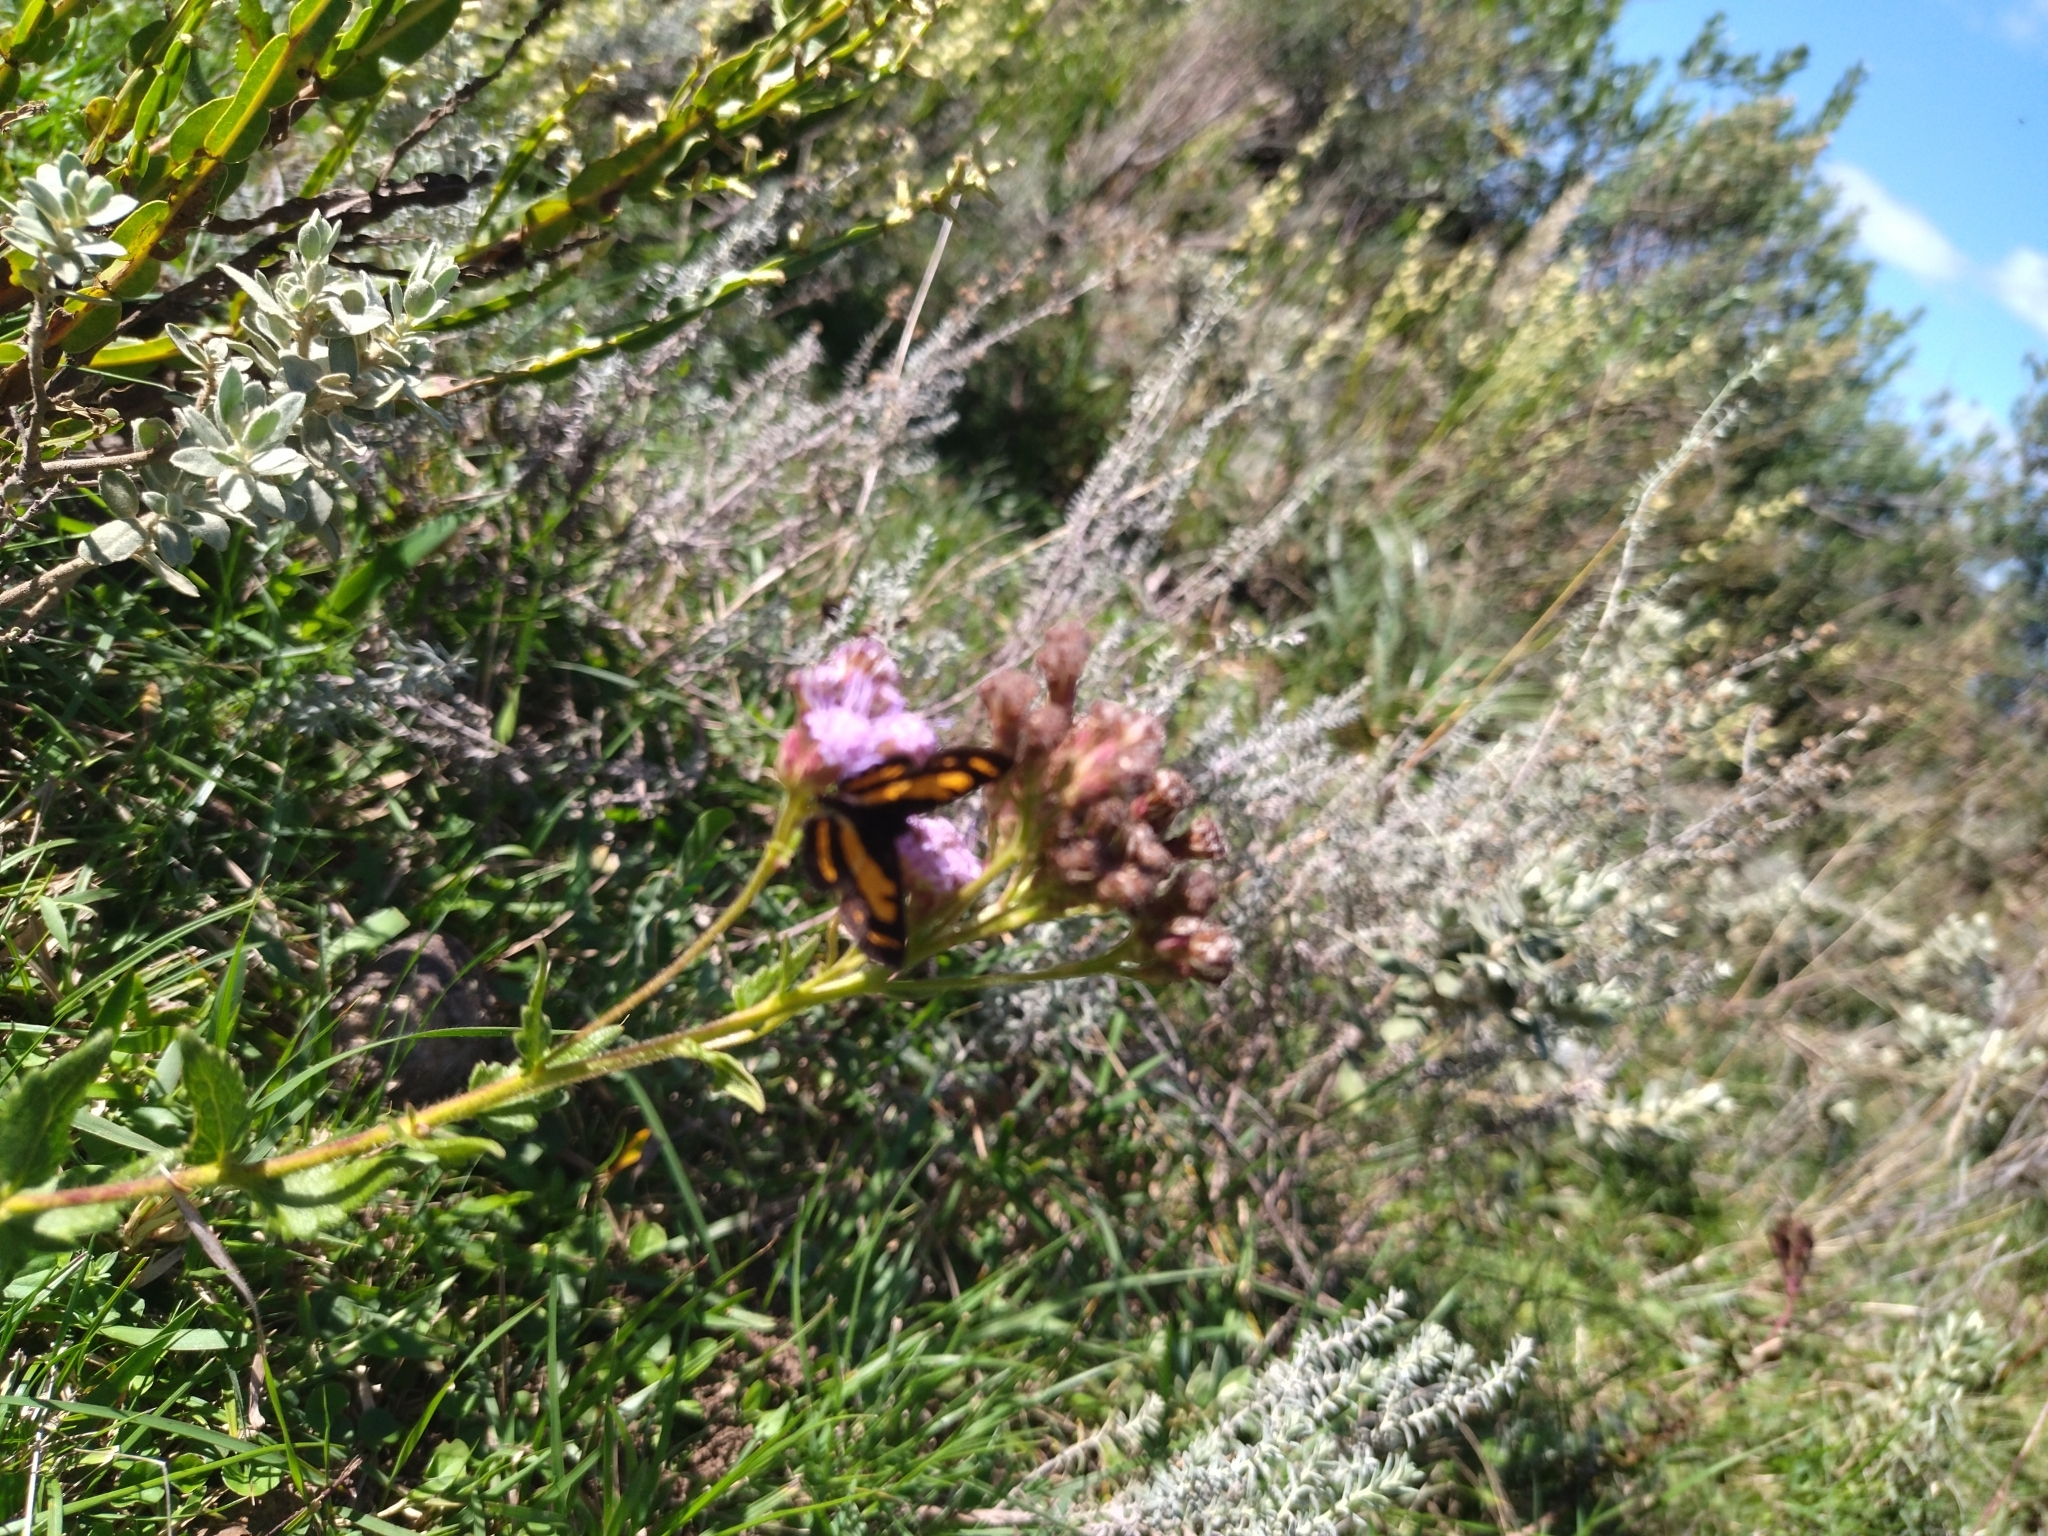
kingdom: Animalia
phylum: Arthropoda
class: Insecta
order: Lepidoptera
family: Riodinidae
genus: Synargis
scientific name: Synargis
